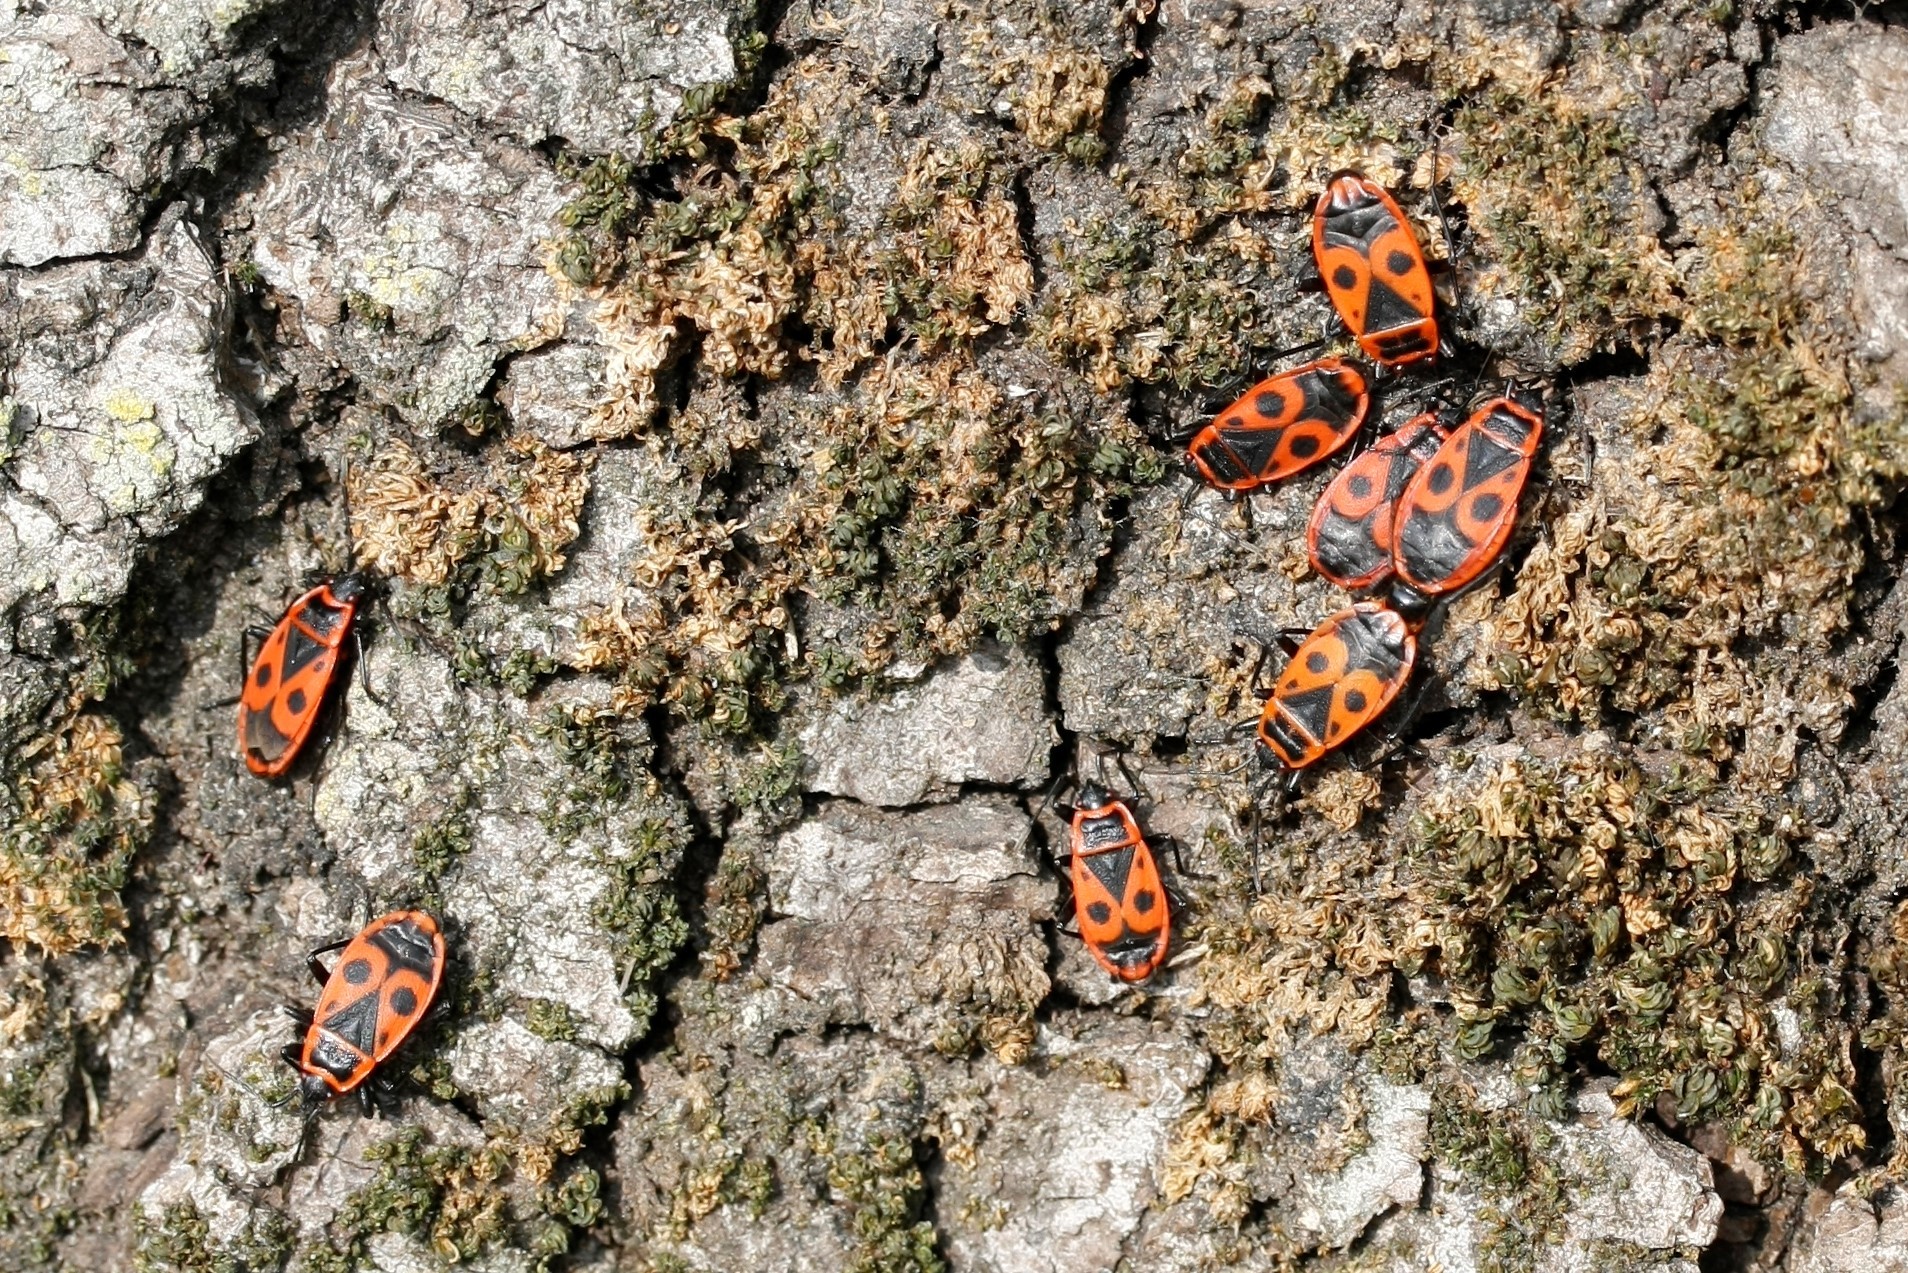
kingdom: Animalia
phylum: Arthropoda
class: Insecta
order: Hemiptera
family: Pyrrhocoridae
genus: Pyrrhocoris
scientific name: Pyrrhocoris apterus
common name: Firebug
